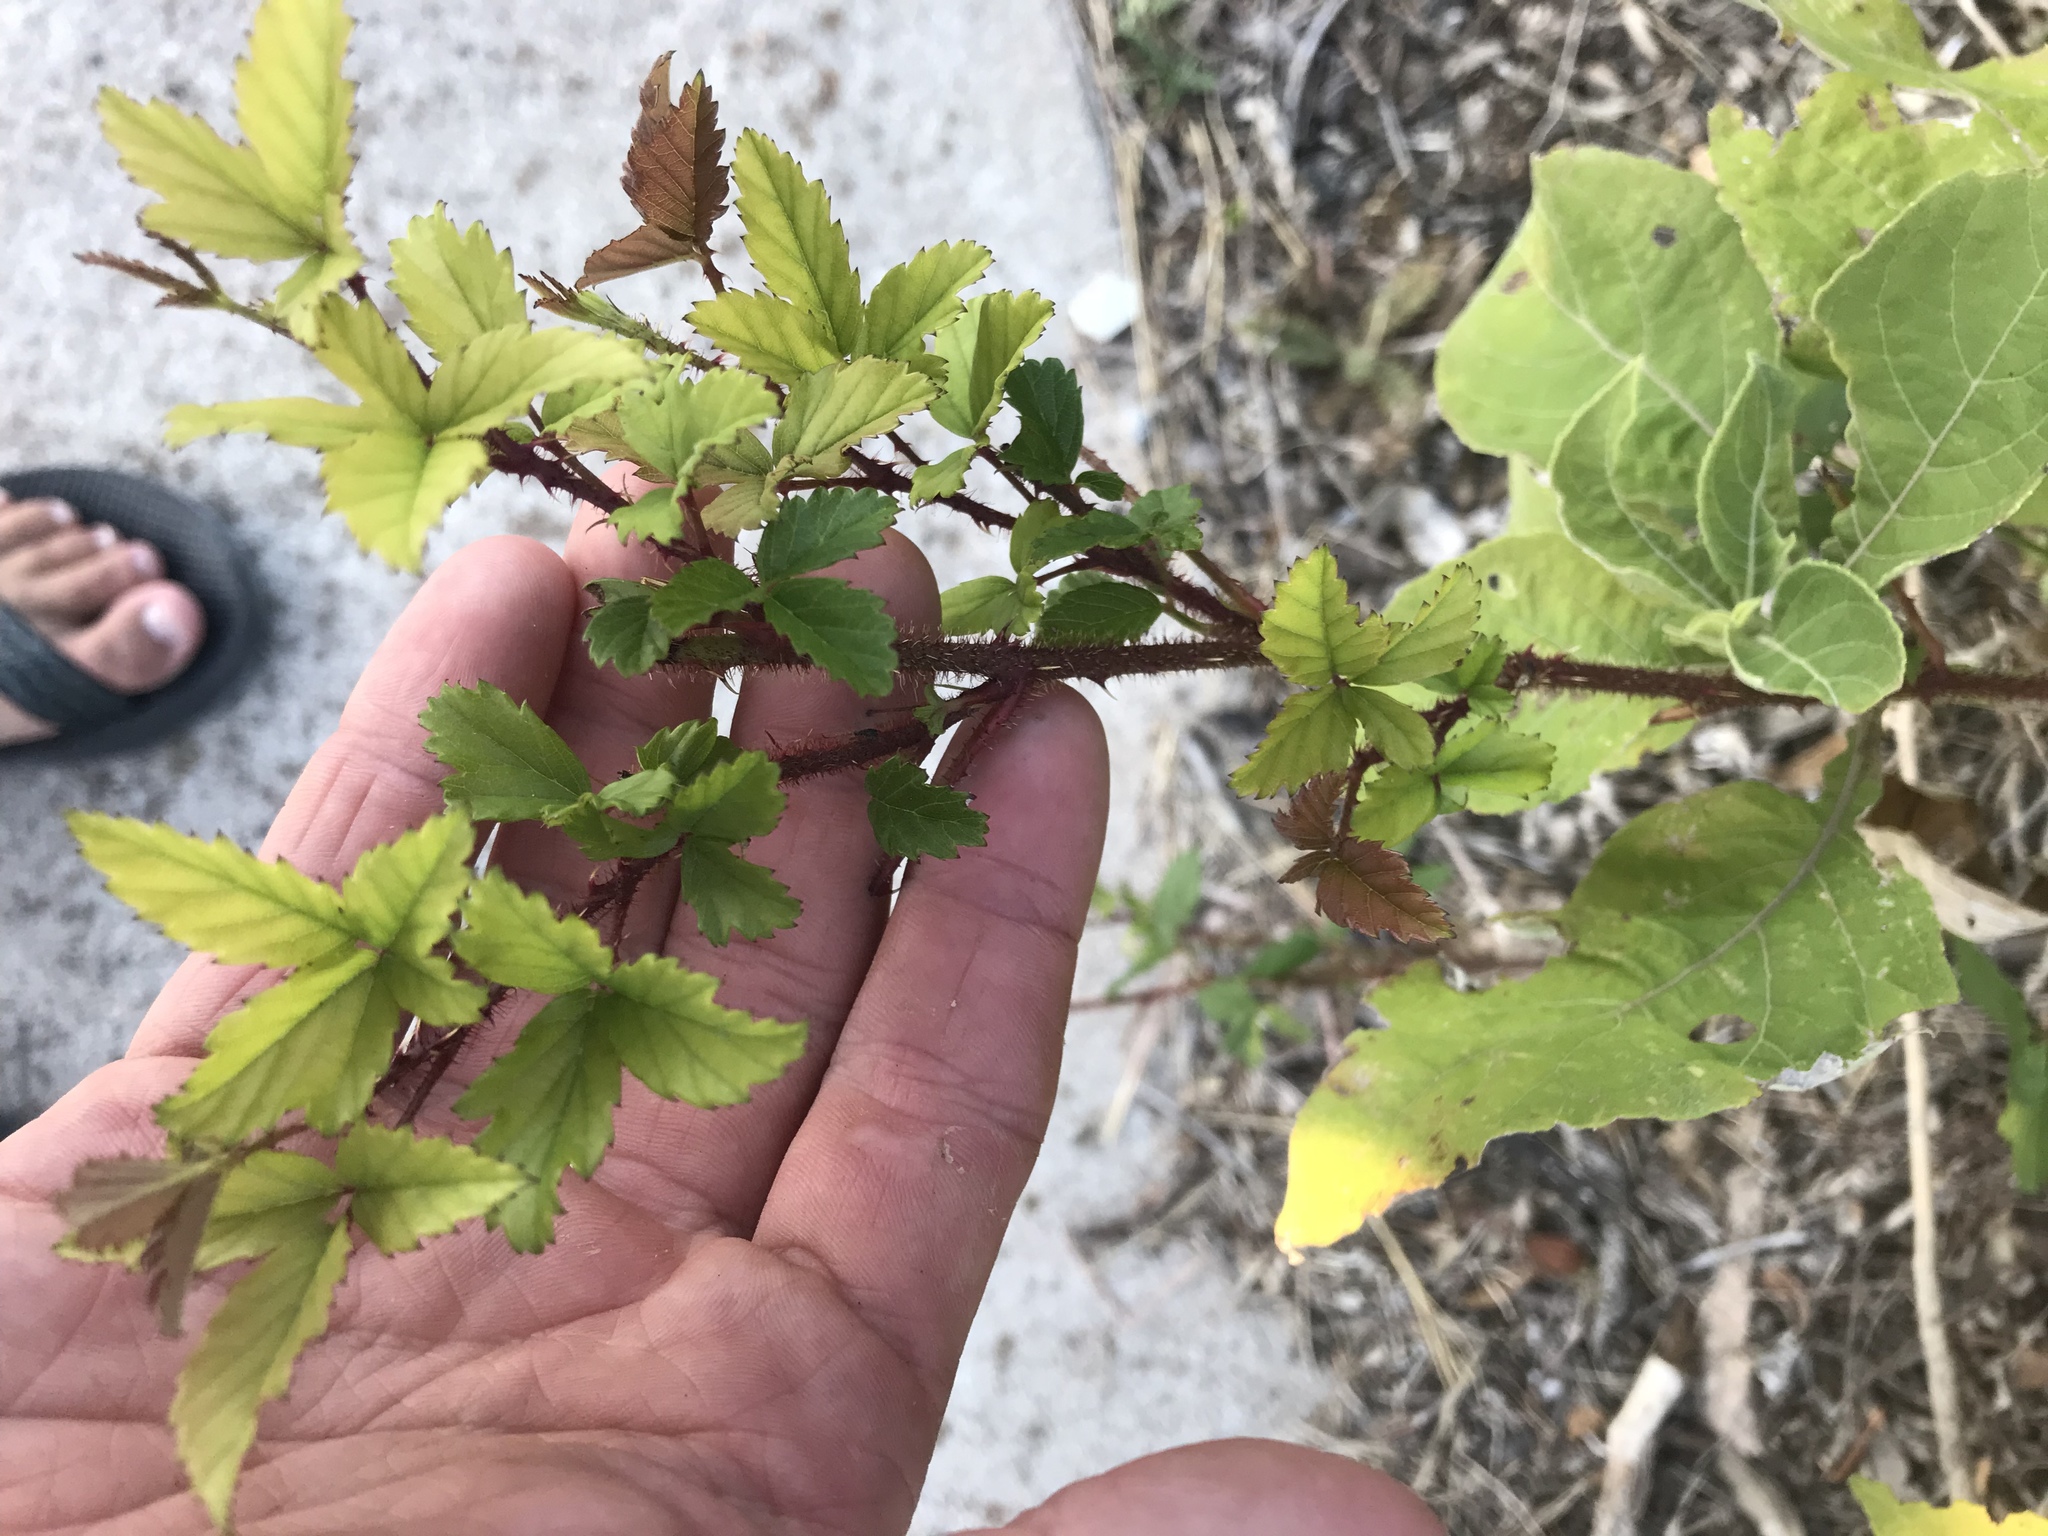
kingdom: Plantae
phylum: Tracheophyta
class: Magnoliopsida
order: Rosales
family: Rosaceae
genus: Rubus
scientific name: Rubus trivialis
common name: Southern dewberry
